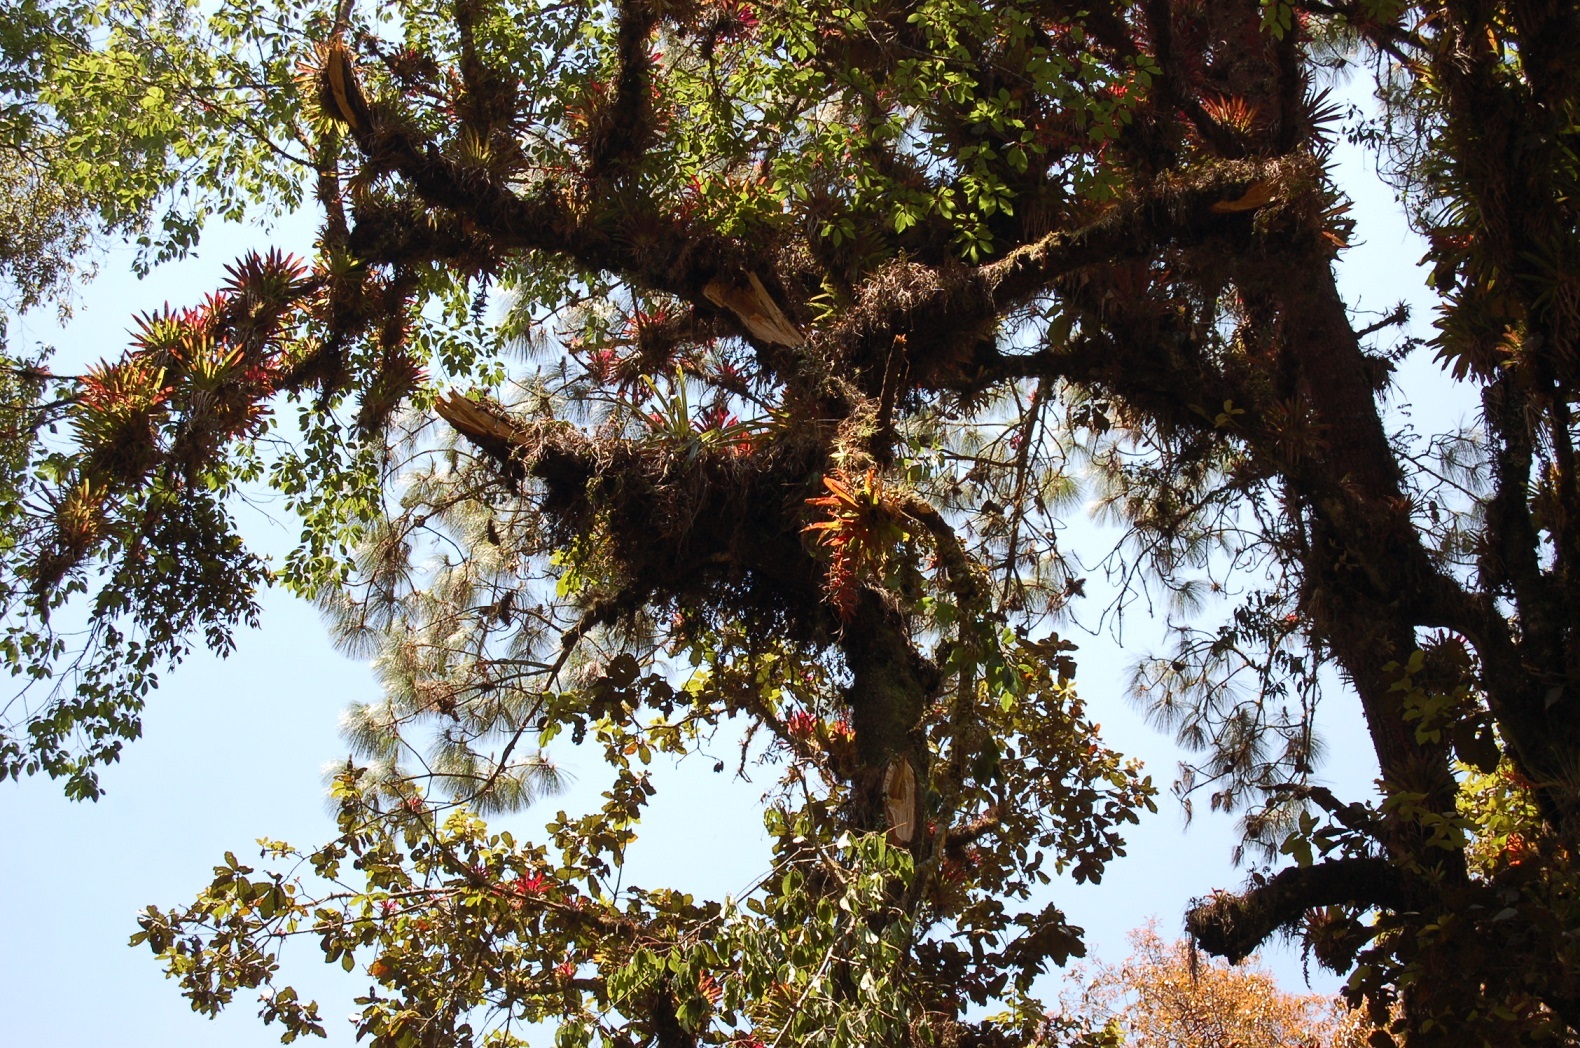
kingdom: Plantae
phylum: Tracheophyta
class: Liliopsida
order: Poales
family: Bromeliaceae
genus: Tillandsia
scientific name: Tillandsia guatemalensis
